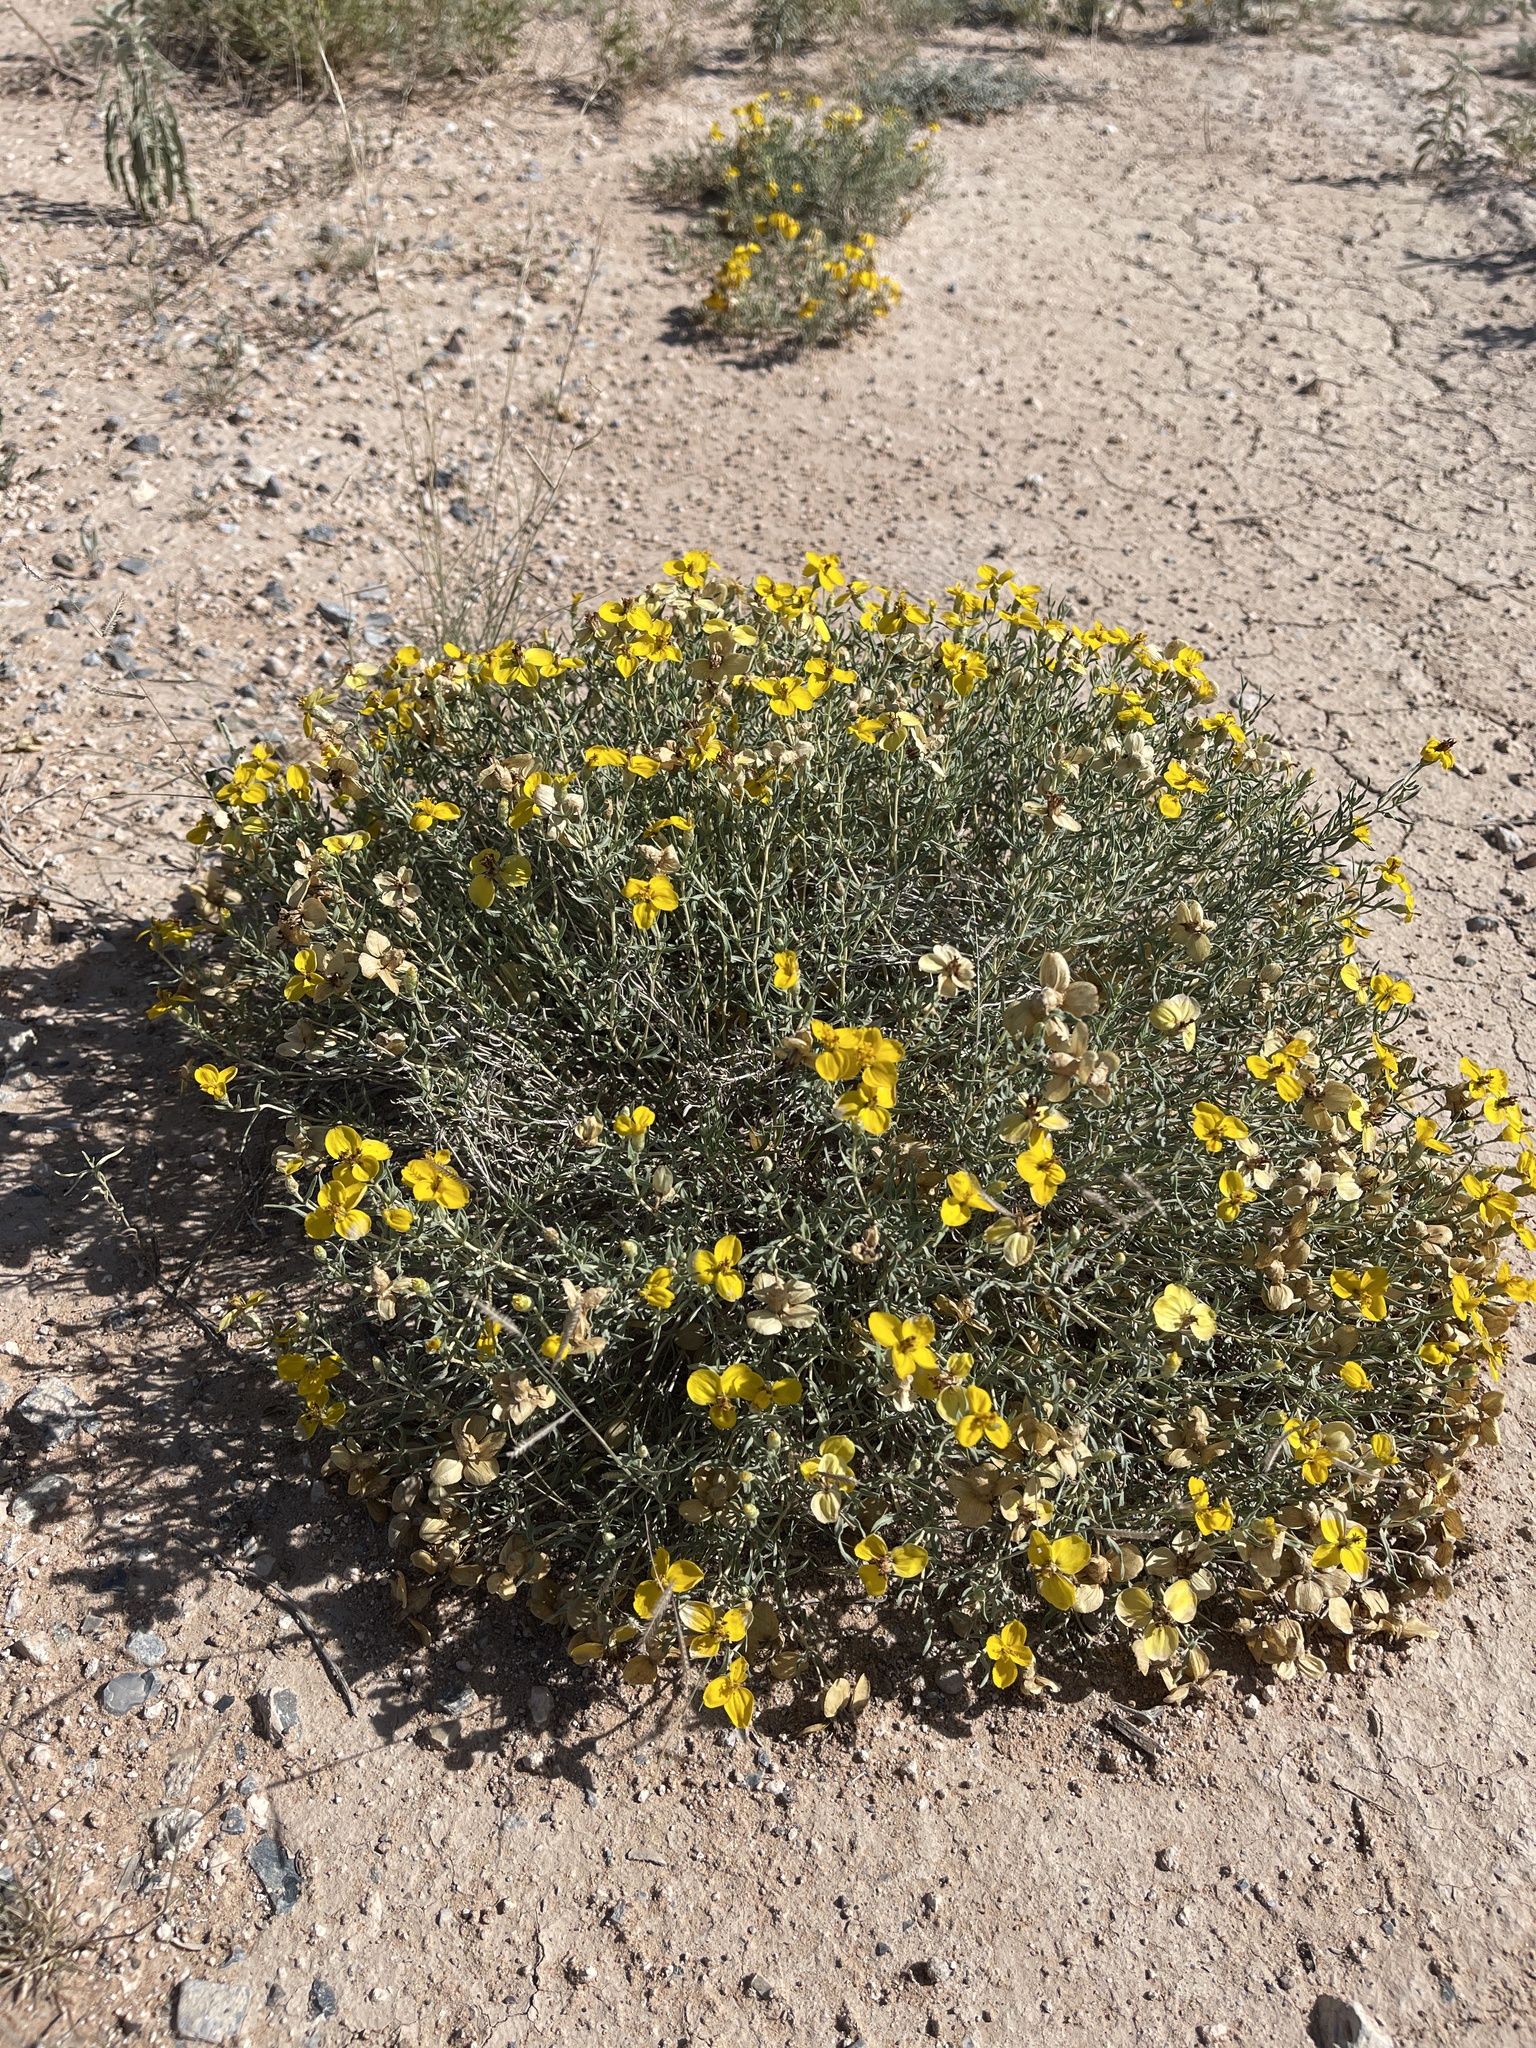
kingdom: Plantae
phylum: Tracheophyta
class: Magnoliopsida
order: Asterales
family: Asteraceae
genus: Zinnia
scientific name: Zinnia grandiflora
